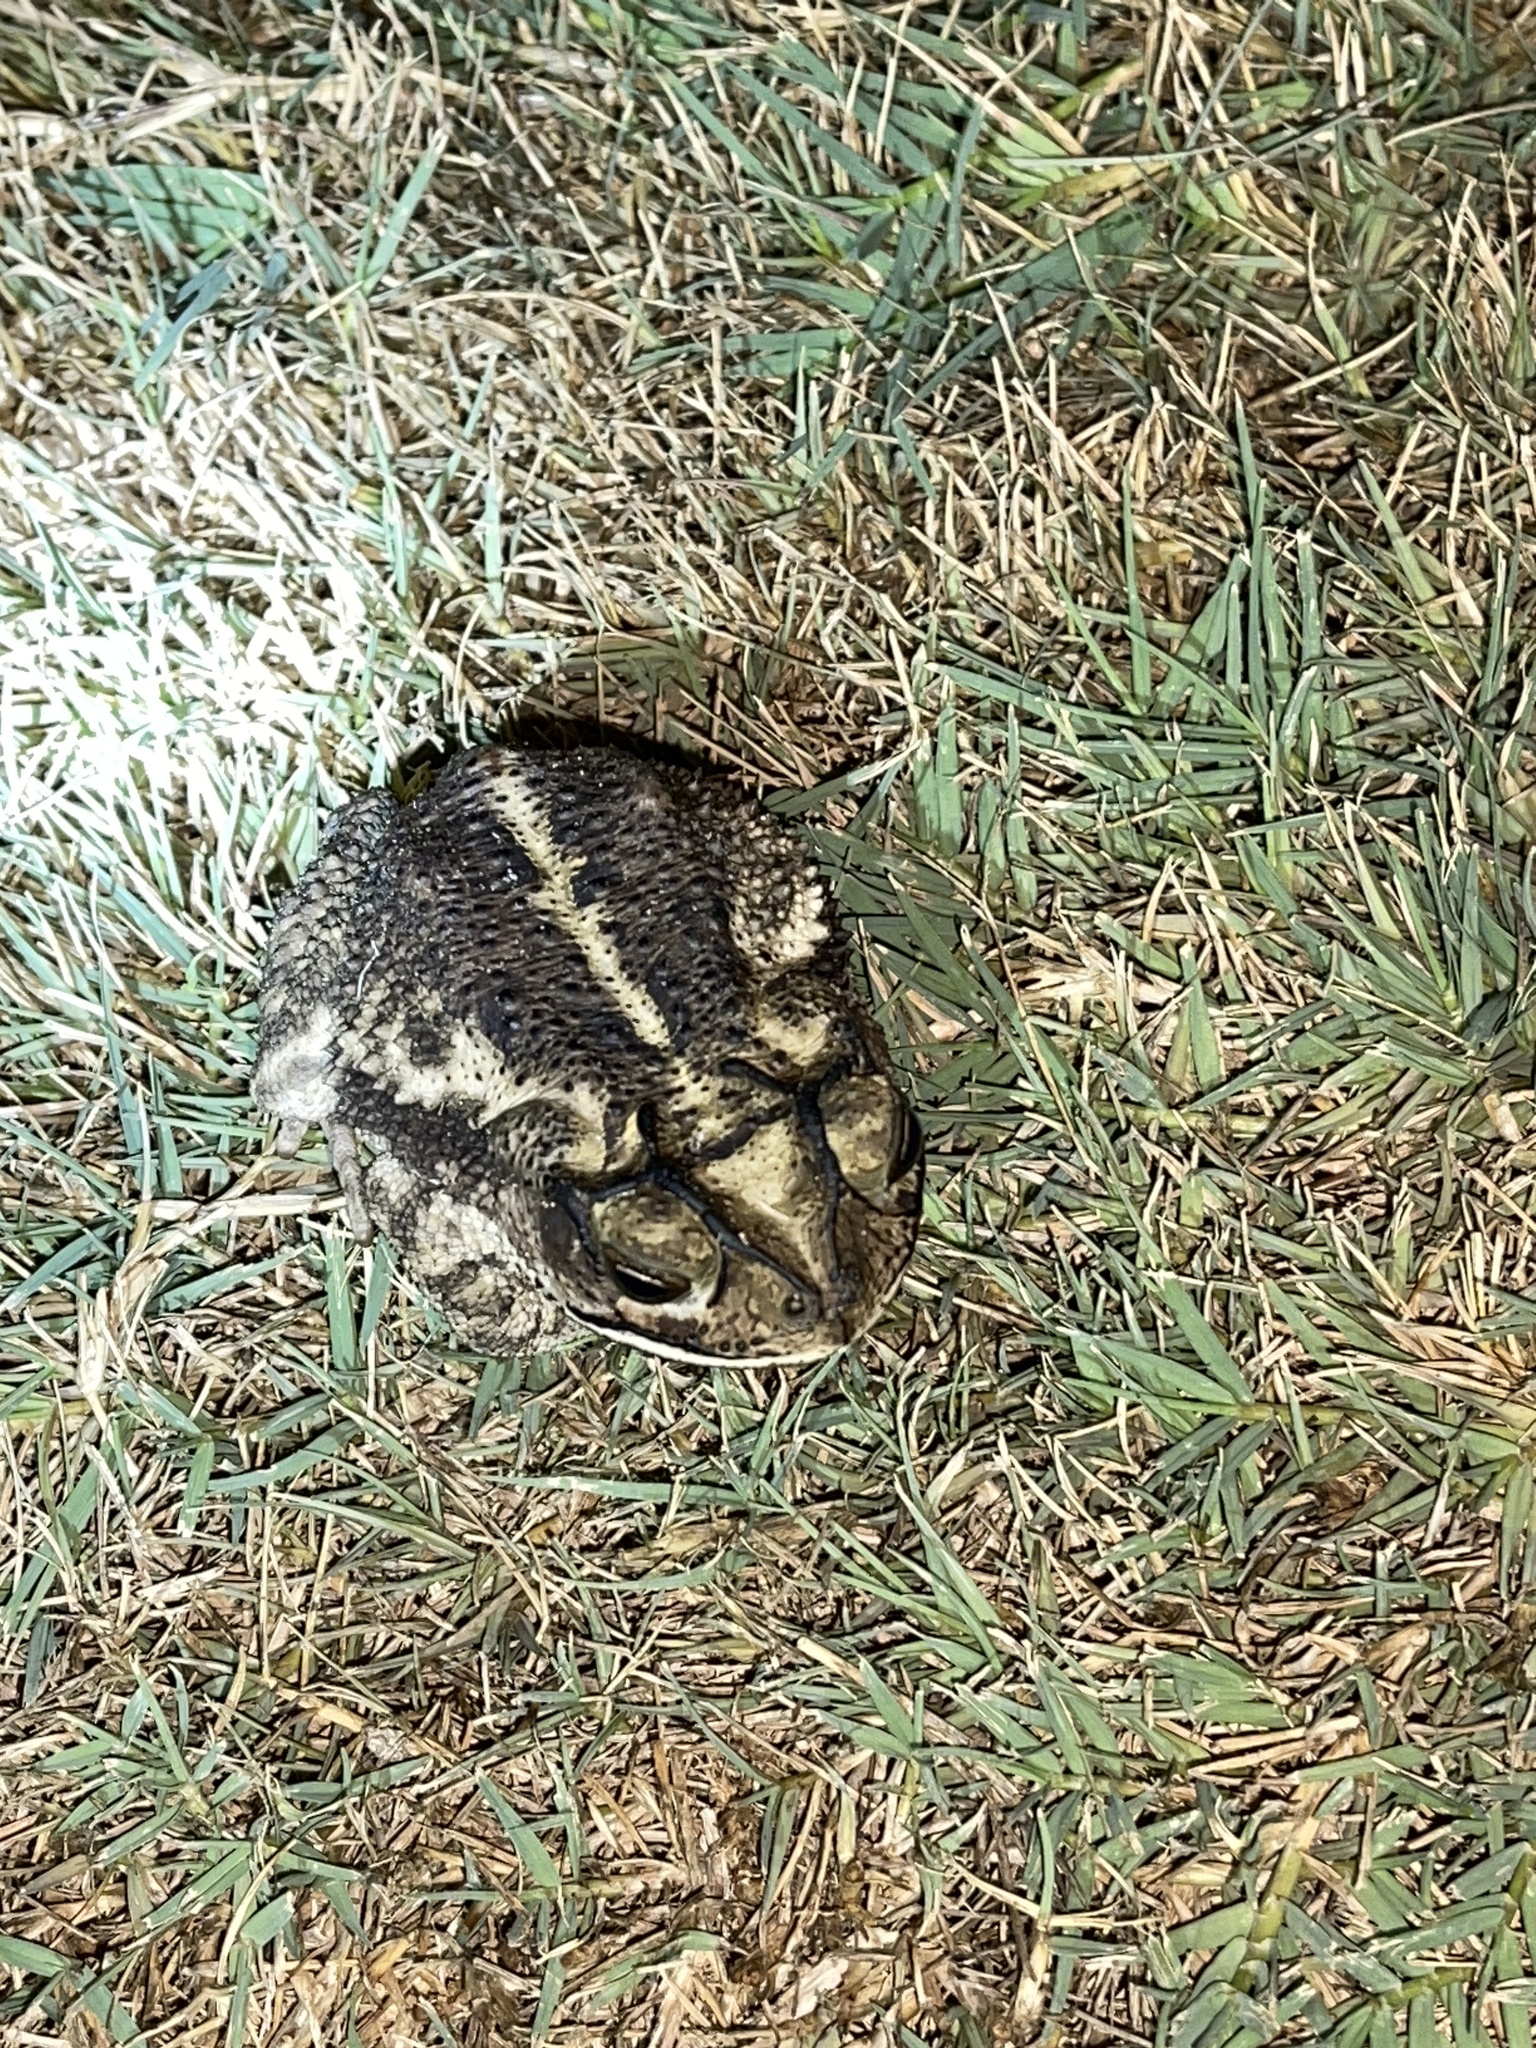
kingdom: Animalia
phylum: Chordata
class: Amphibia
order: Anura
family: Bufonidae
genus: Incilius
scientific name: Incilius nebulifer
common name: Gulf coast toad
